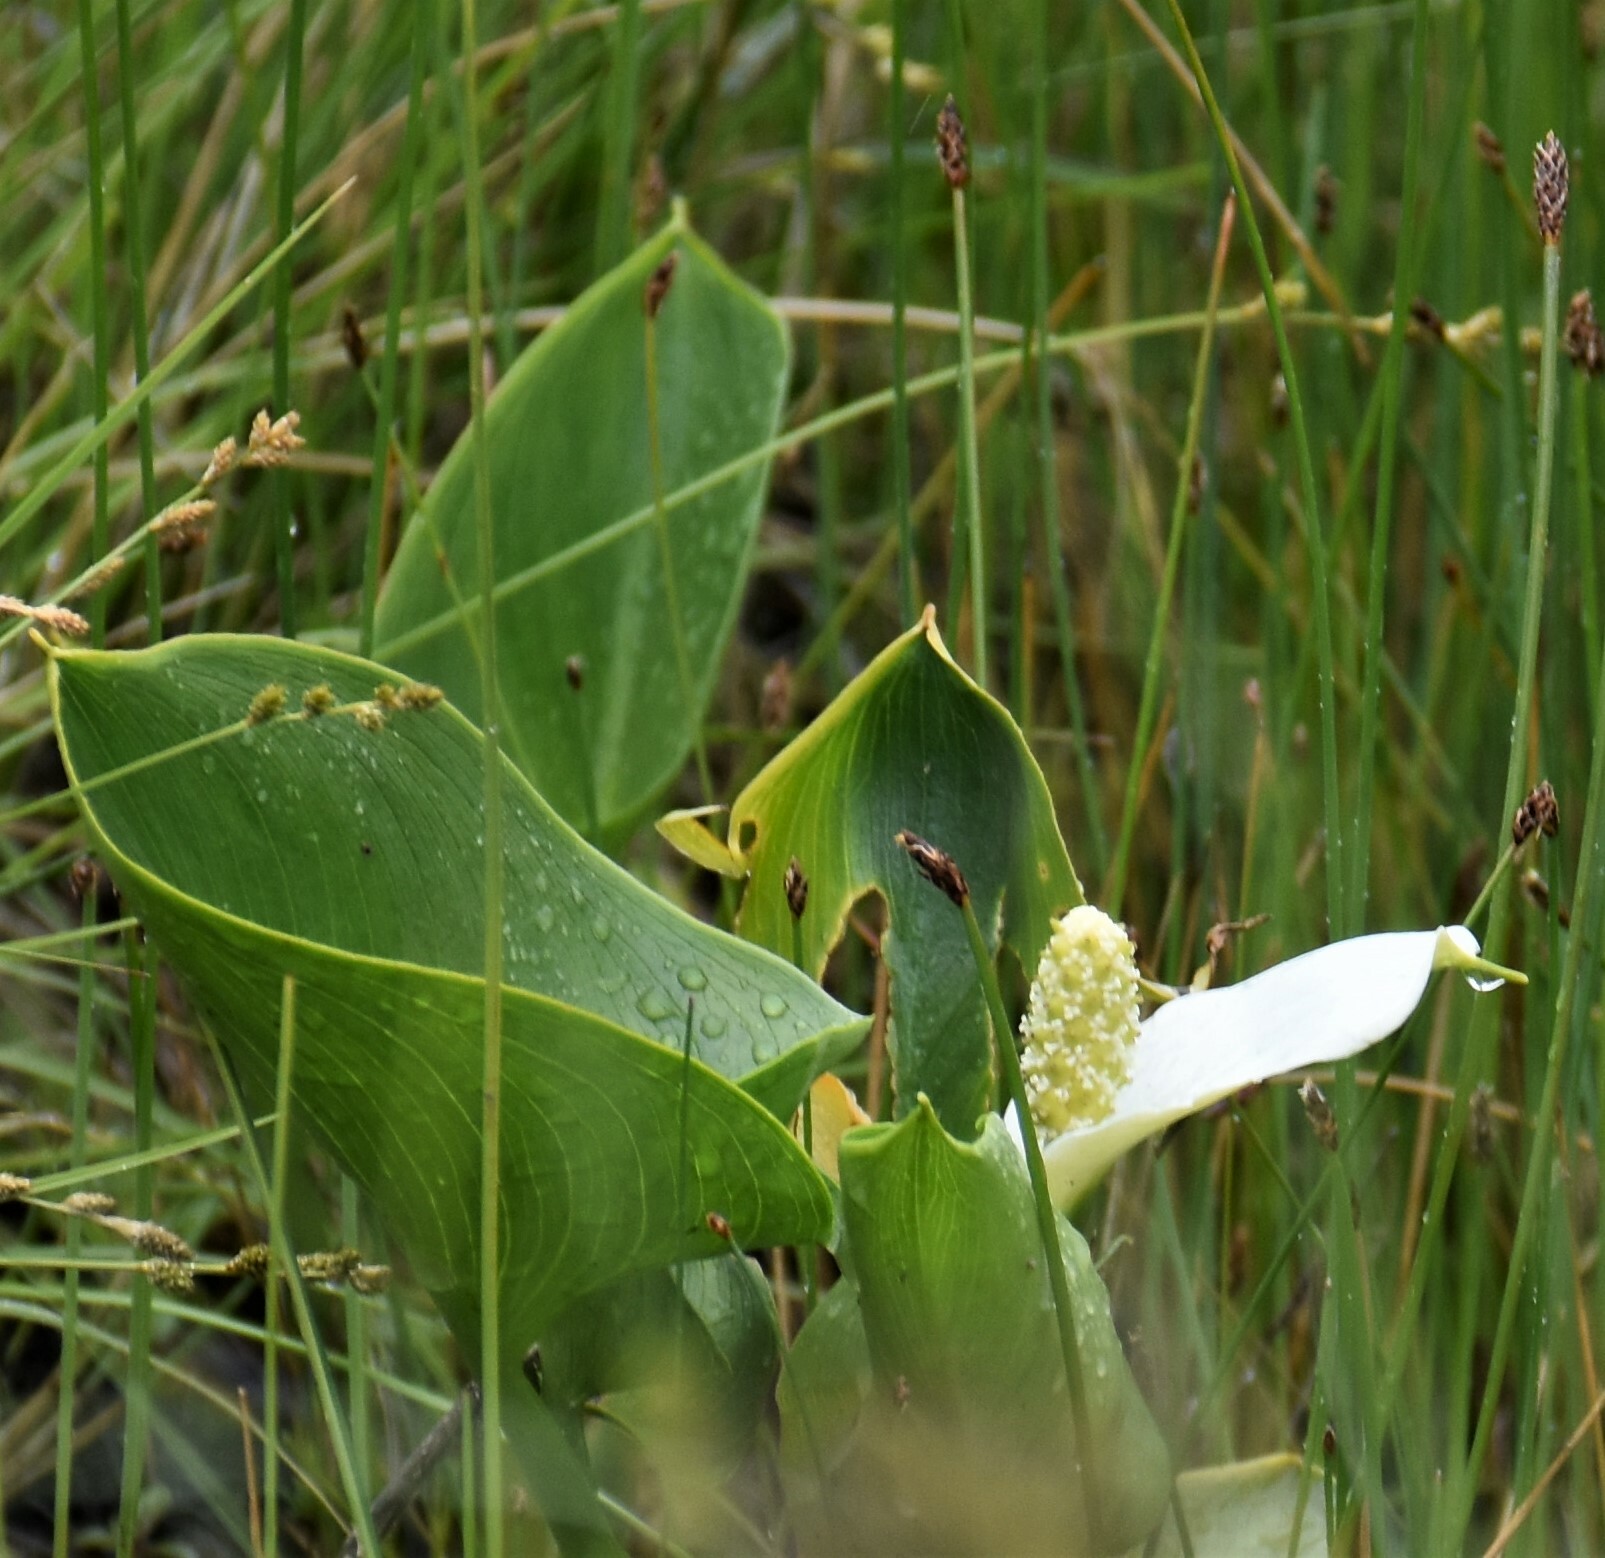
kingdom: Plantae
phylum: Tracheophyta
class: Liliopsida
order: Alismatales
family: Araceae
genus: Calla
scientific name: Calla palustris
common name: Bog arum
